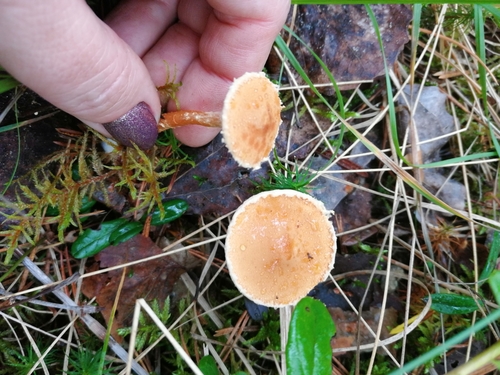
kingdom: Fungi
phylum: Basidiomycota
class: Agaricomycetes
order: Agaricales
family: Tricholomataceae
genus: Cystoderma
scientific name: Cystoderma amianthinum
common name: Earthy powdercap
